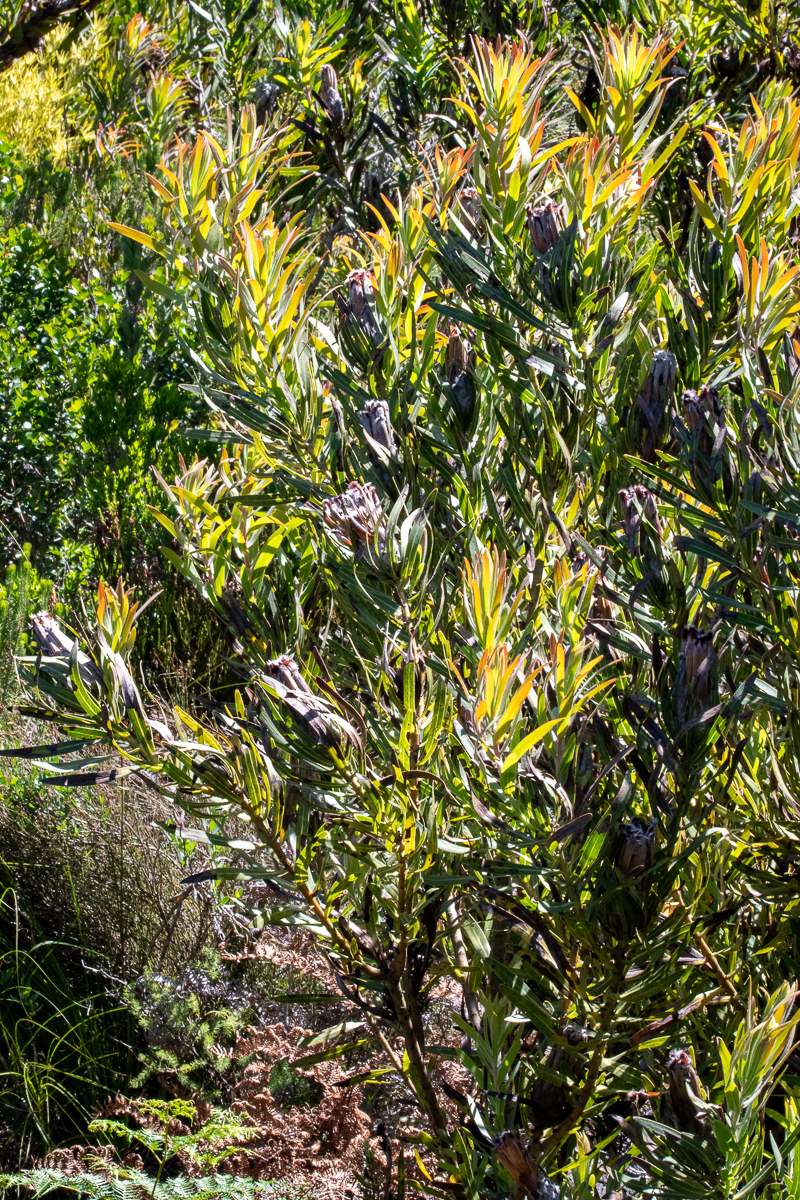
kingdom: Plantae
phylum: Tracheophyta
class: Magnoliopsida
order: Proteales
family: Proteaceae
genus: Protea
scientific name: Protea lepidocarpodendron
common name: Black-bearded protea
